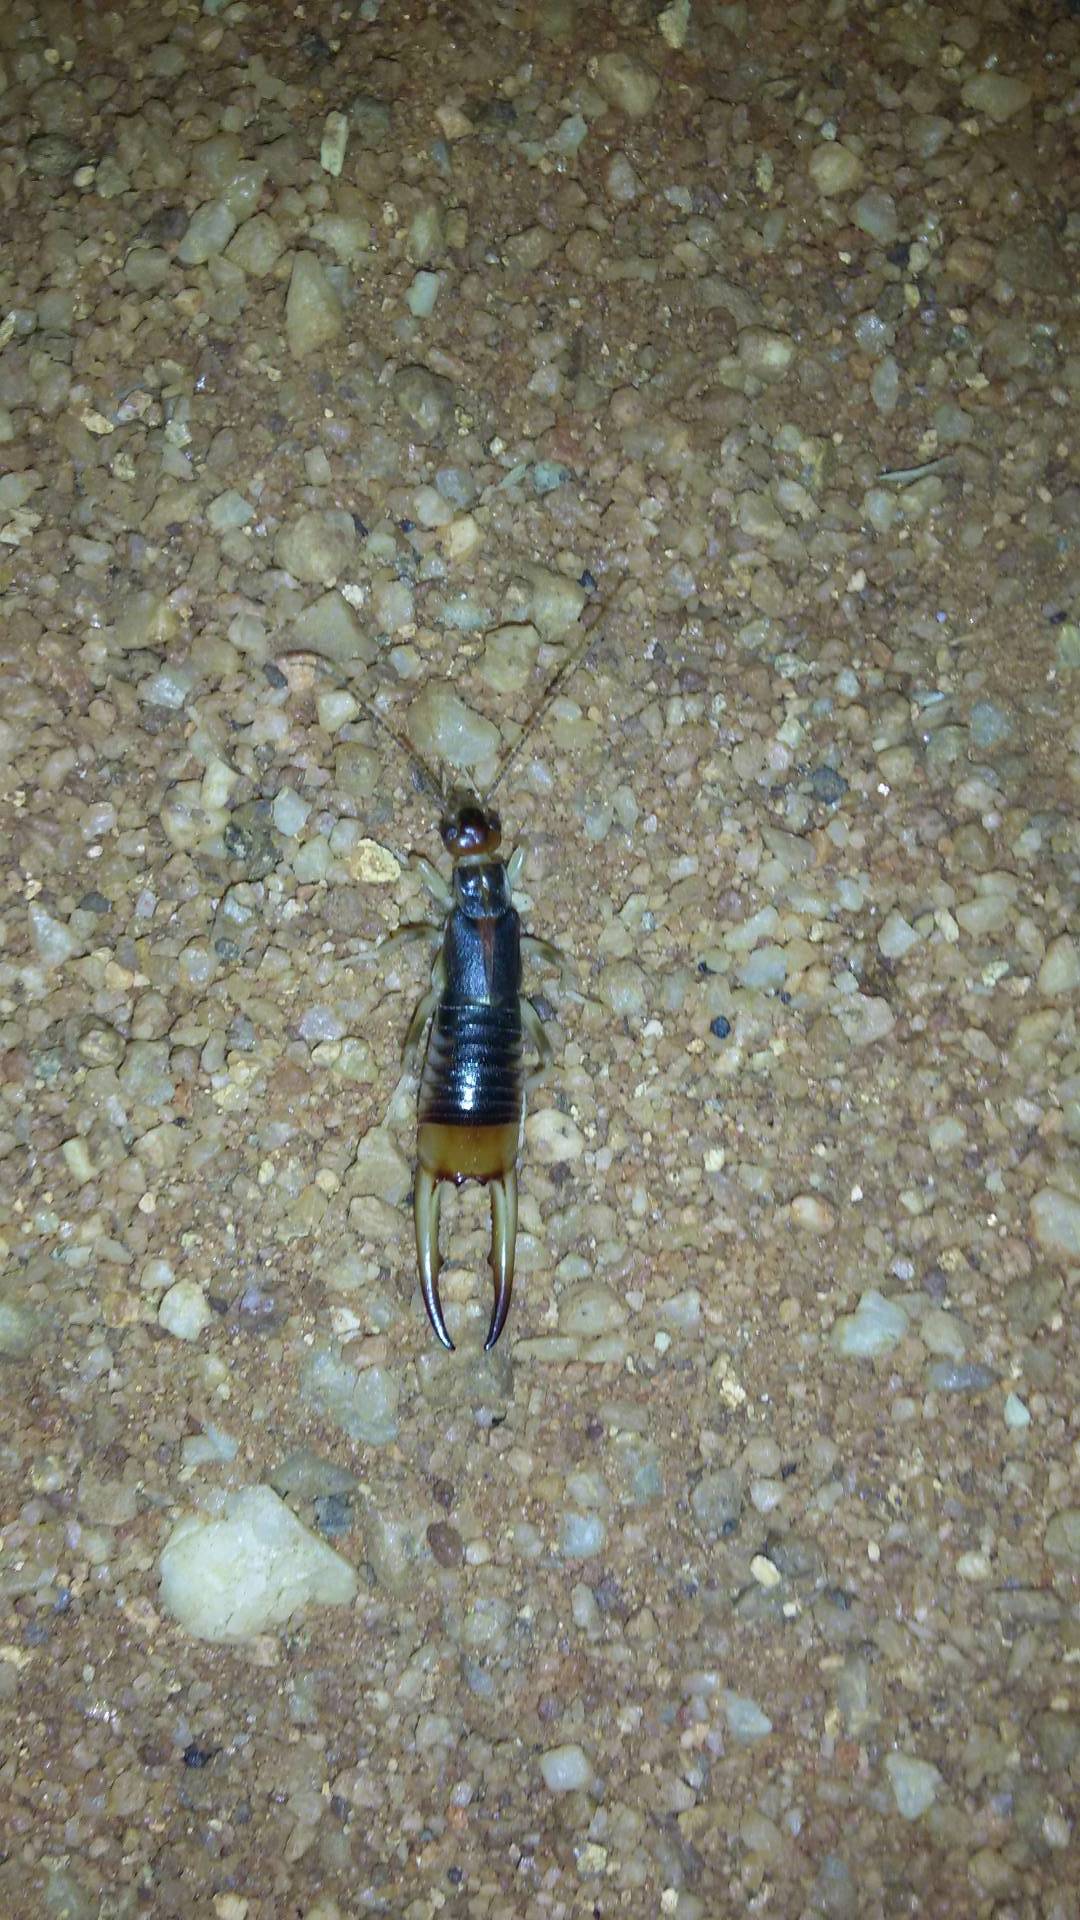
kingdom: Animalia
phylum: Arthropoda
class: Insecta
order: Dermaptera
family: Labiduridae
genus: Labidura
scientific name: Labidura riparia
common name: Striped earwig
